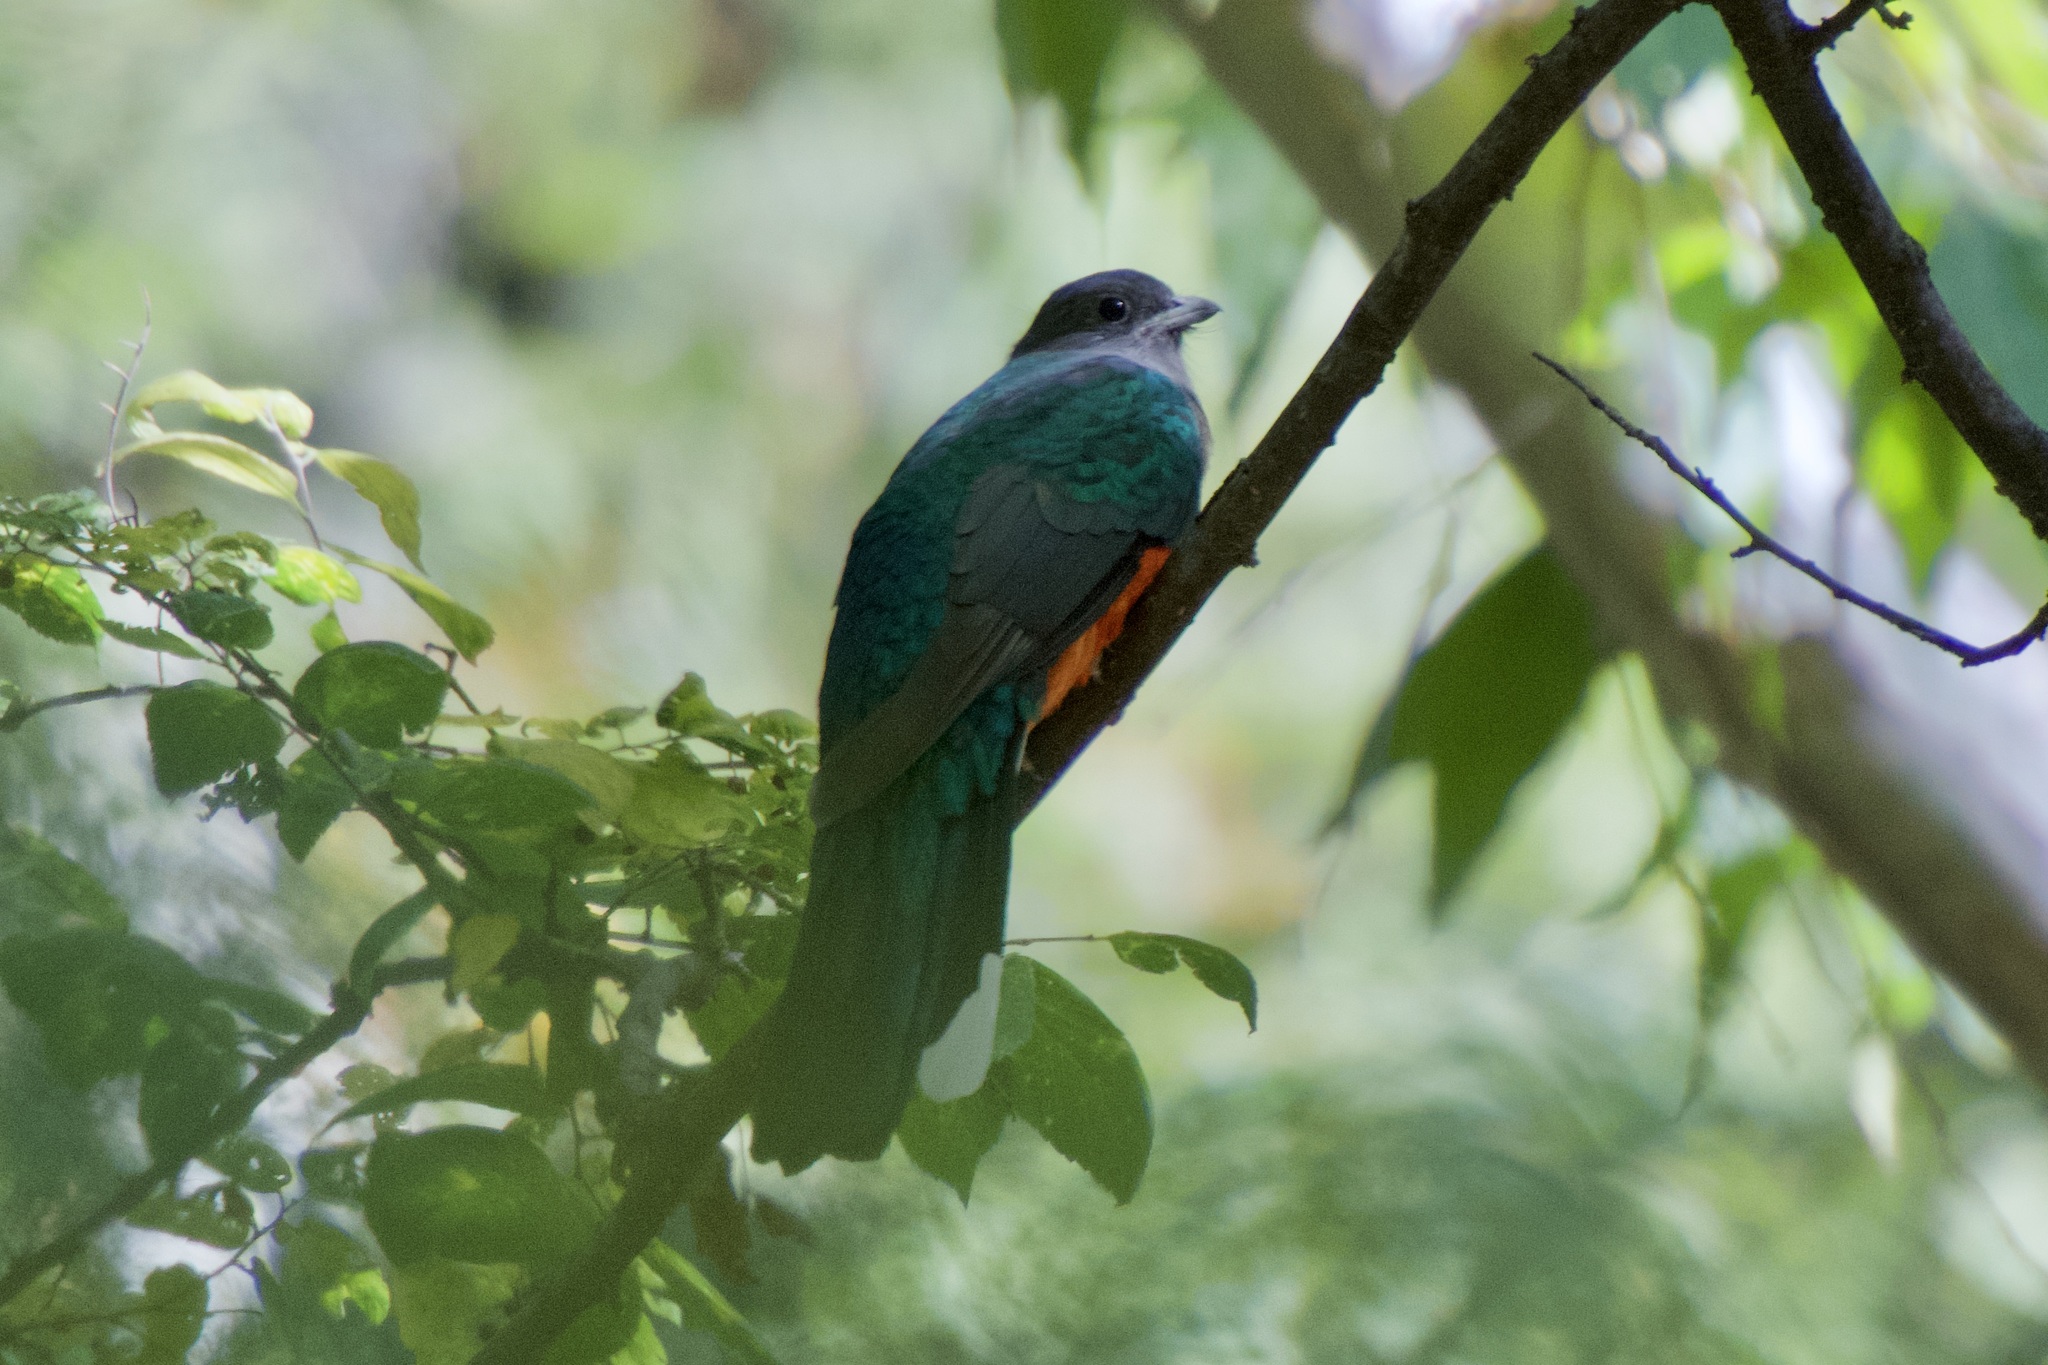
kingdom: Animalia
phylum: Chordata
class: Aves
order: Trogoniformes
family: Trogonidae
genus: Euptilotis
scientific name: Euptilotis neoxenus
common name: Eared quetzal
